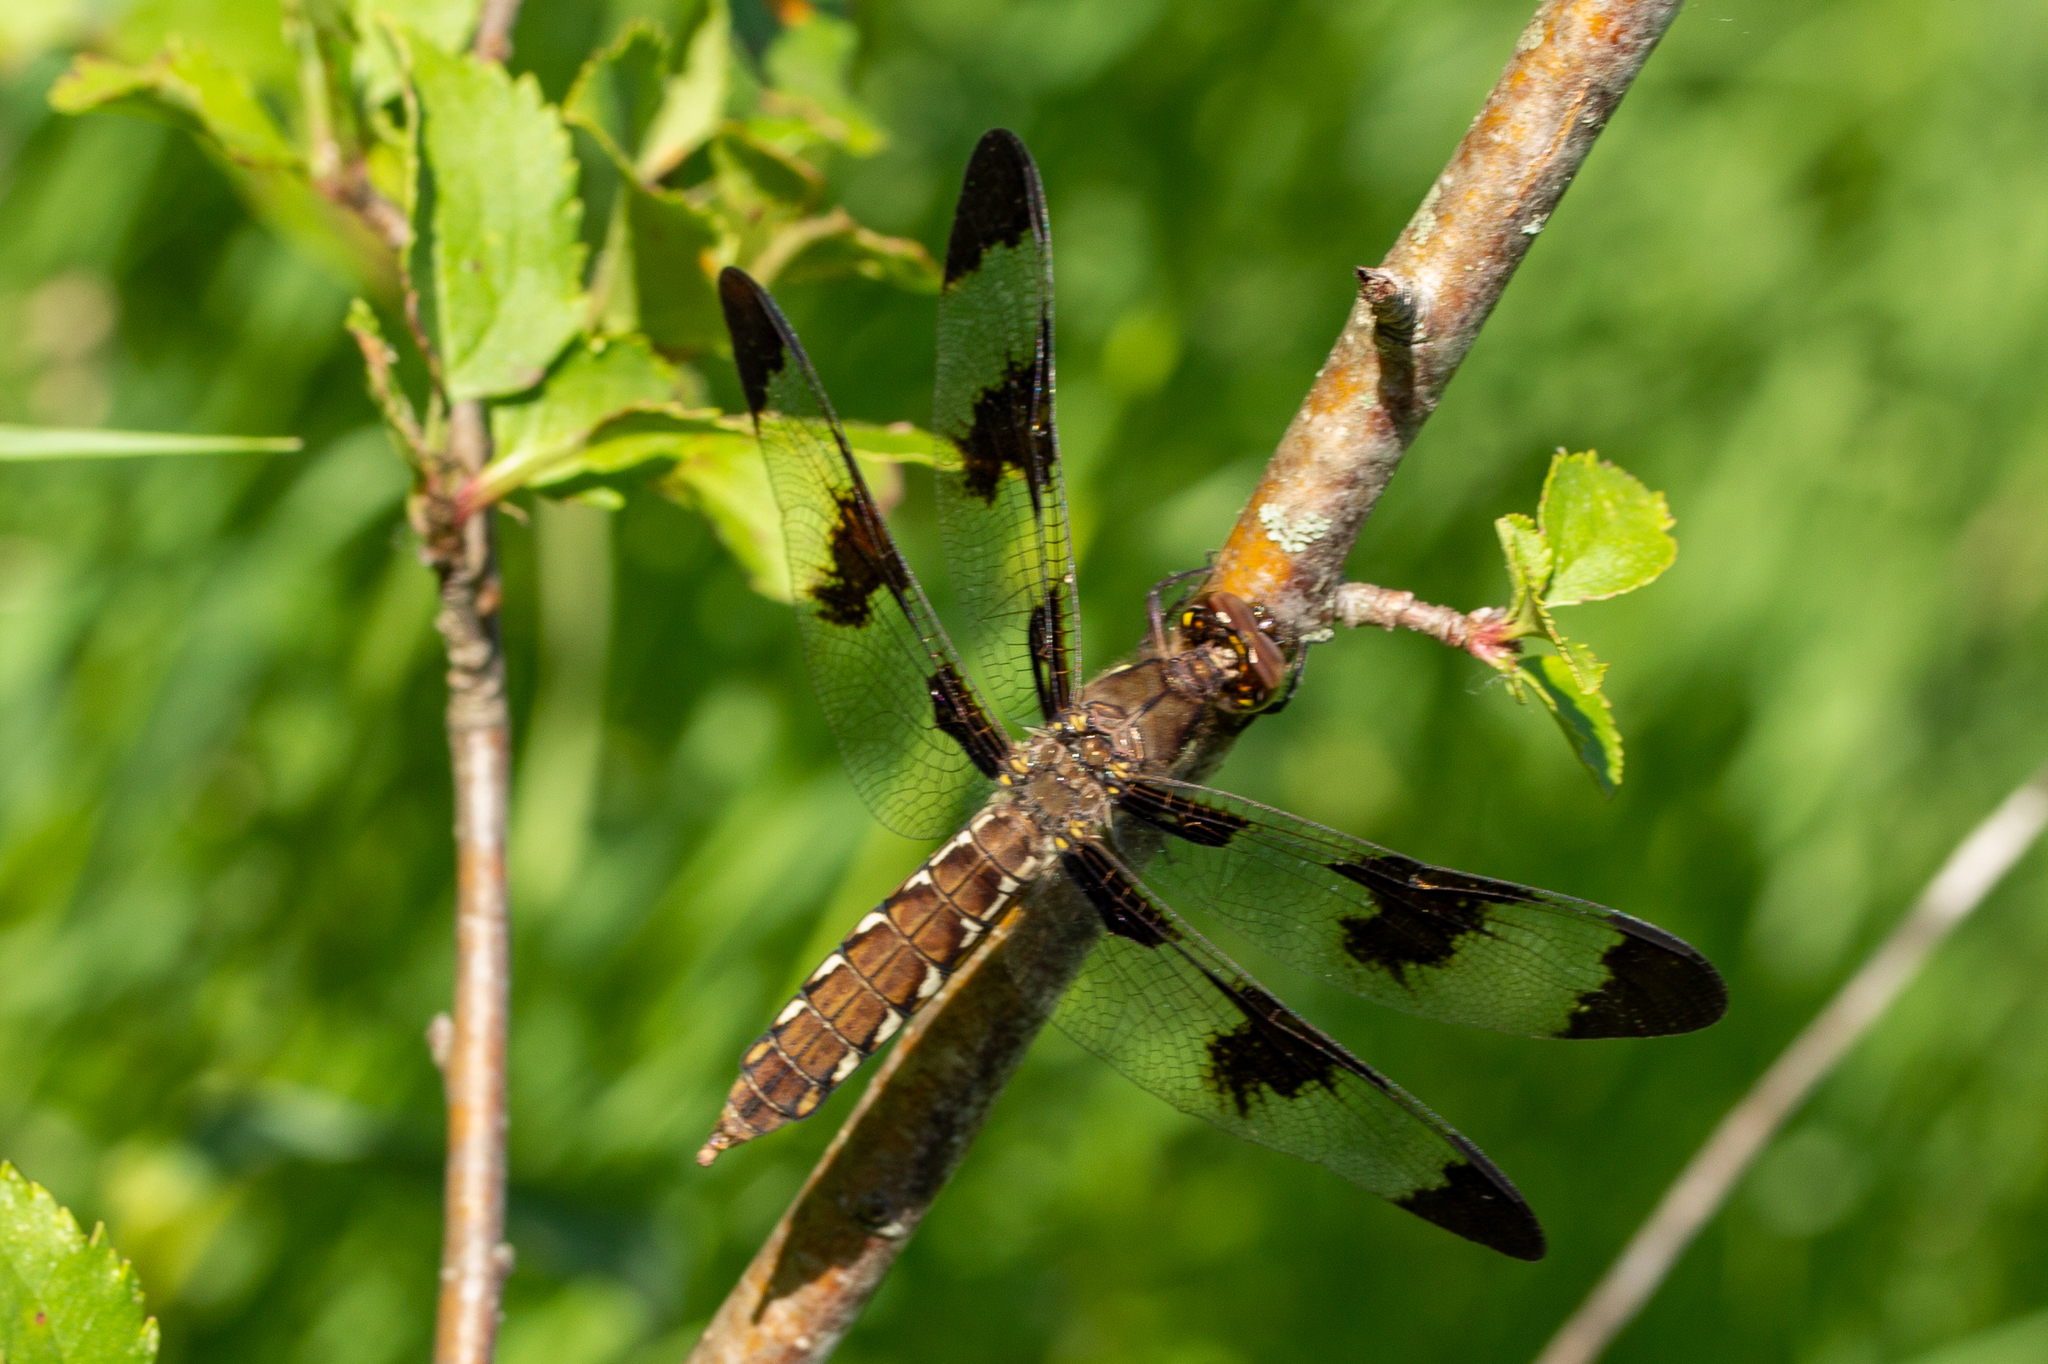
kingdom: Animalia
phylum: Arthropoda
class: Insecta
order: Odonata
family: Libellulidae
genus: Plathemis
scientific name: Plathemis lydia
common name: Common whitetail
